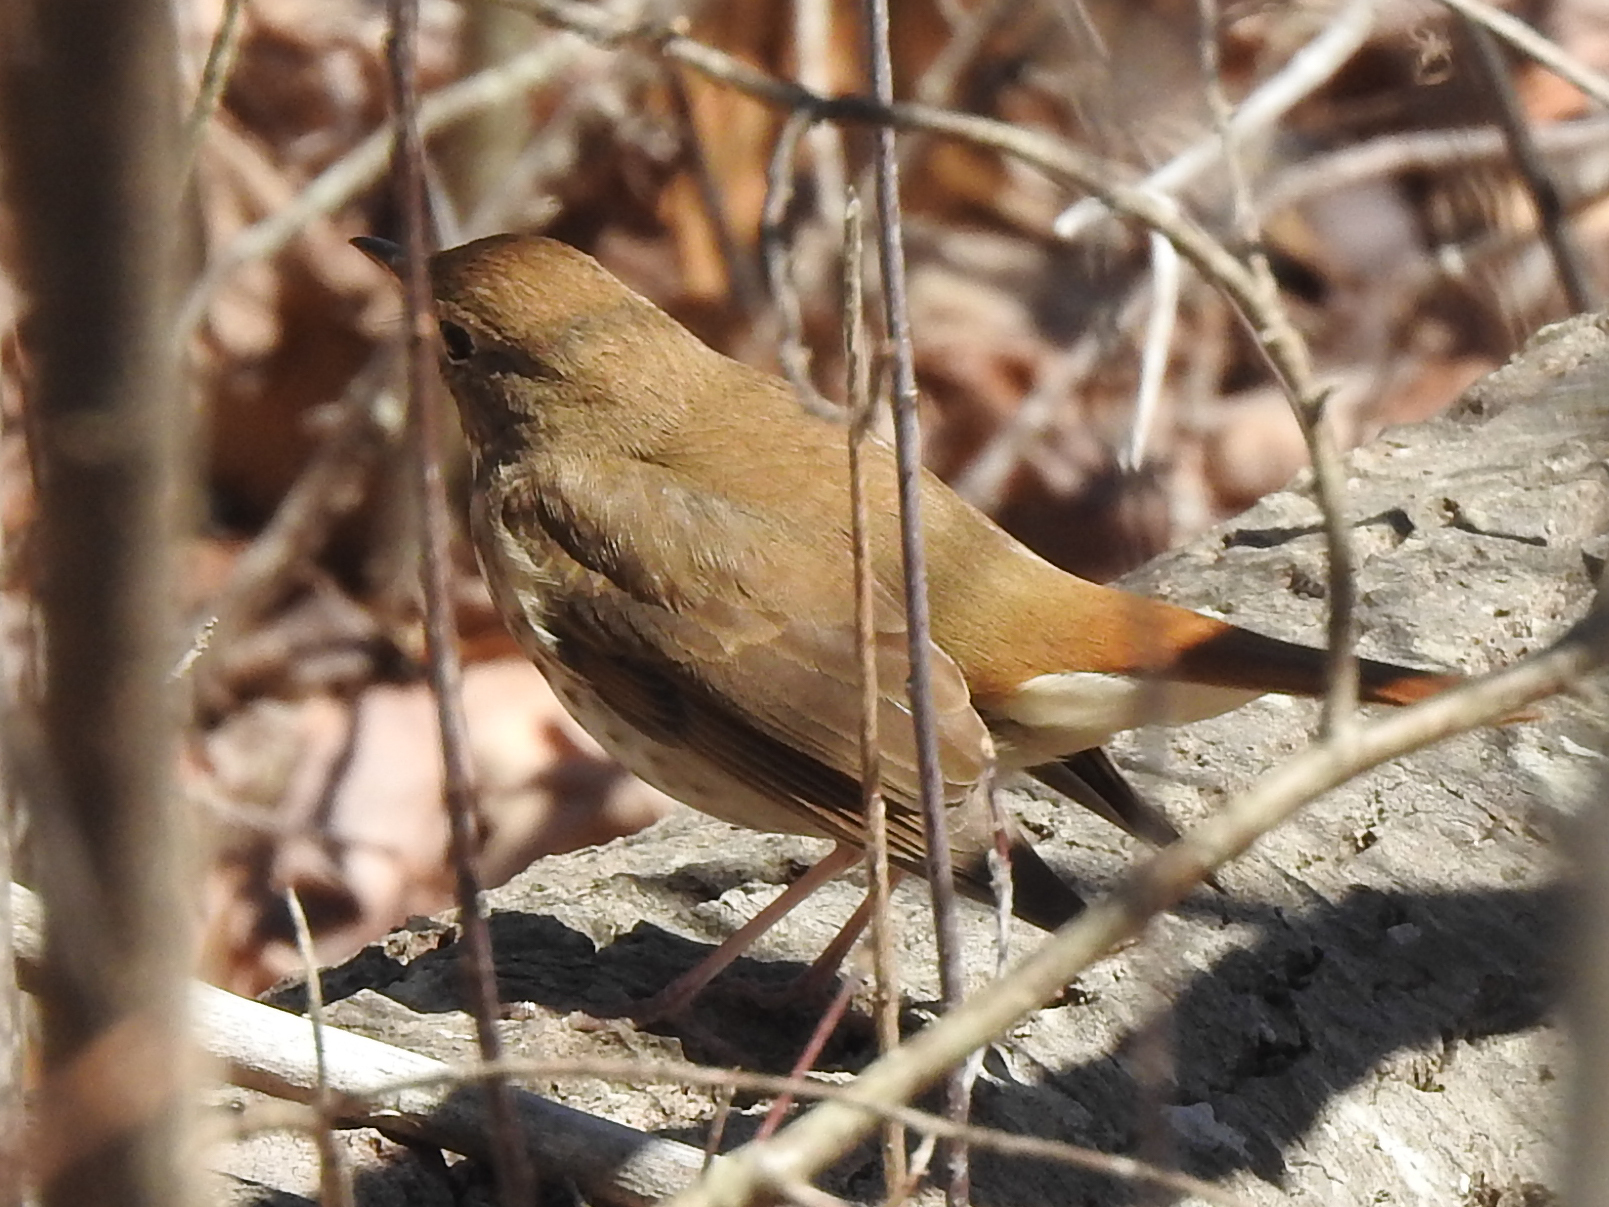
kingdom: Animalia
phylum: Chordata
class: Aves
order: Passeriformes
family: Turdidae
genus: Catharus
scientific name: Catharus guttatus
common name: Hermit thrush
